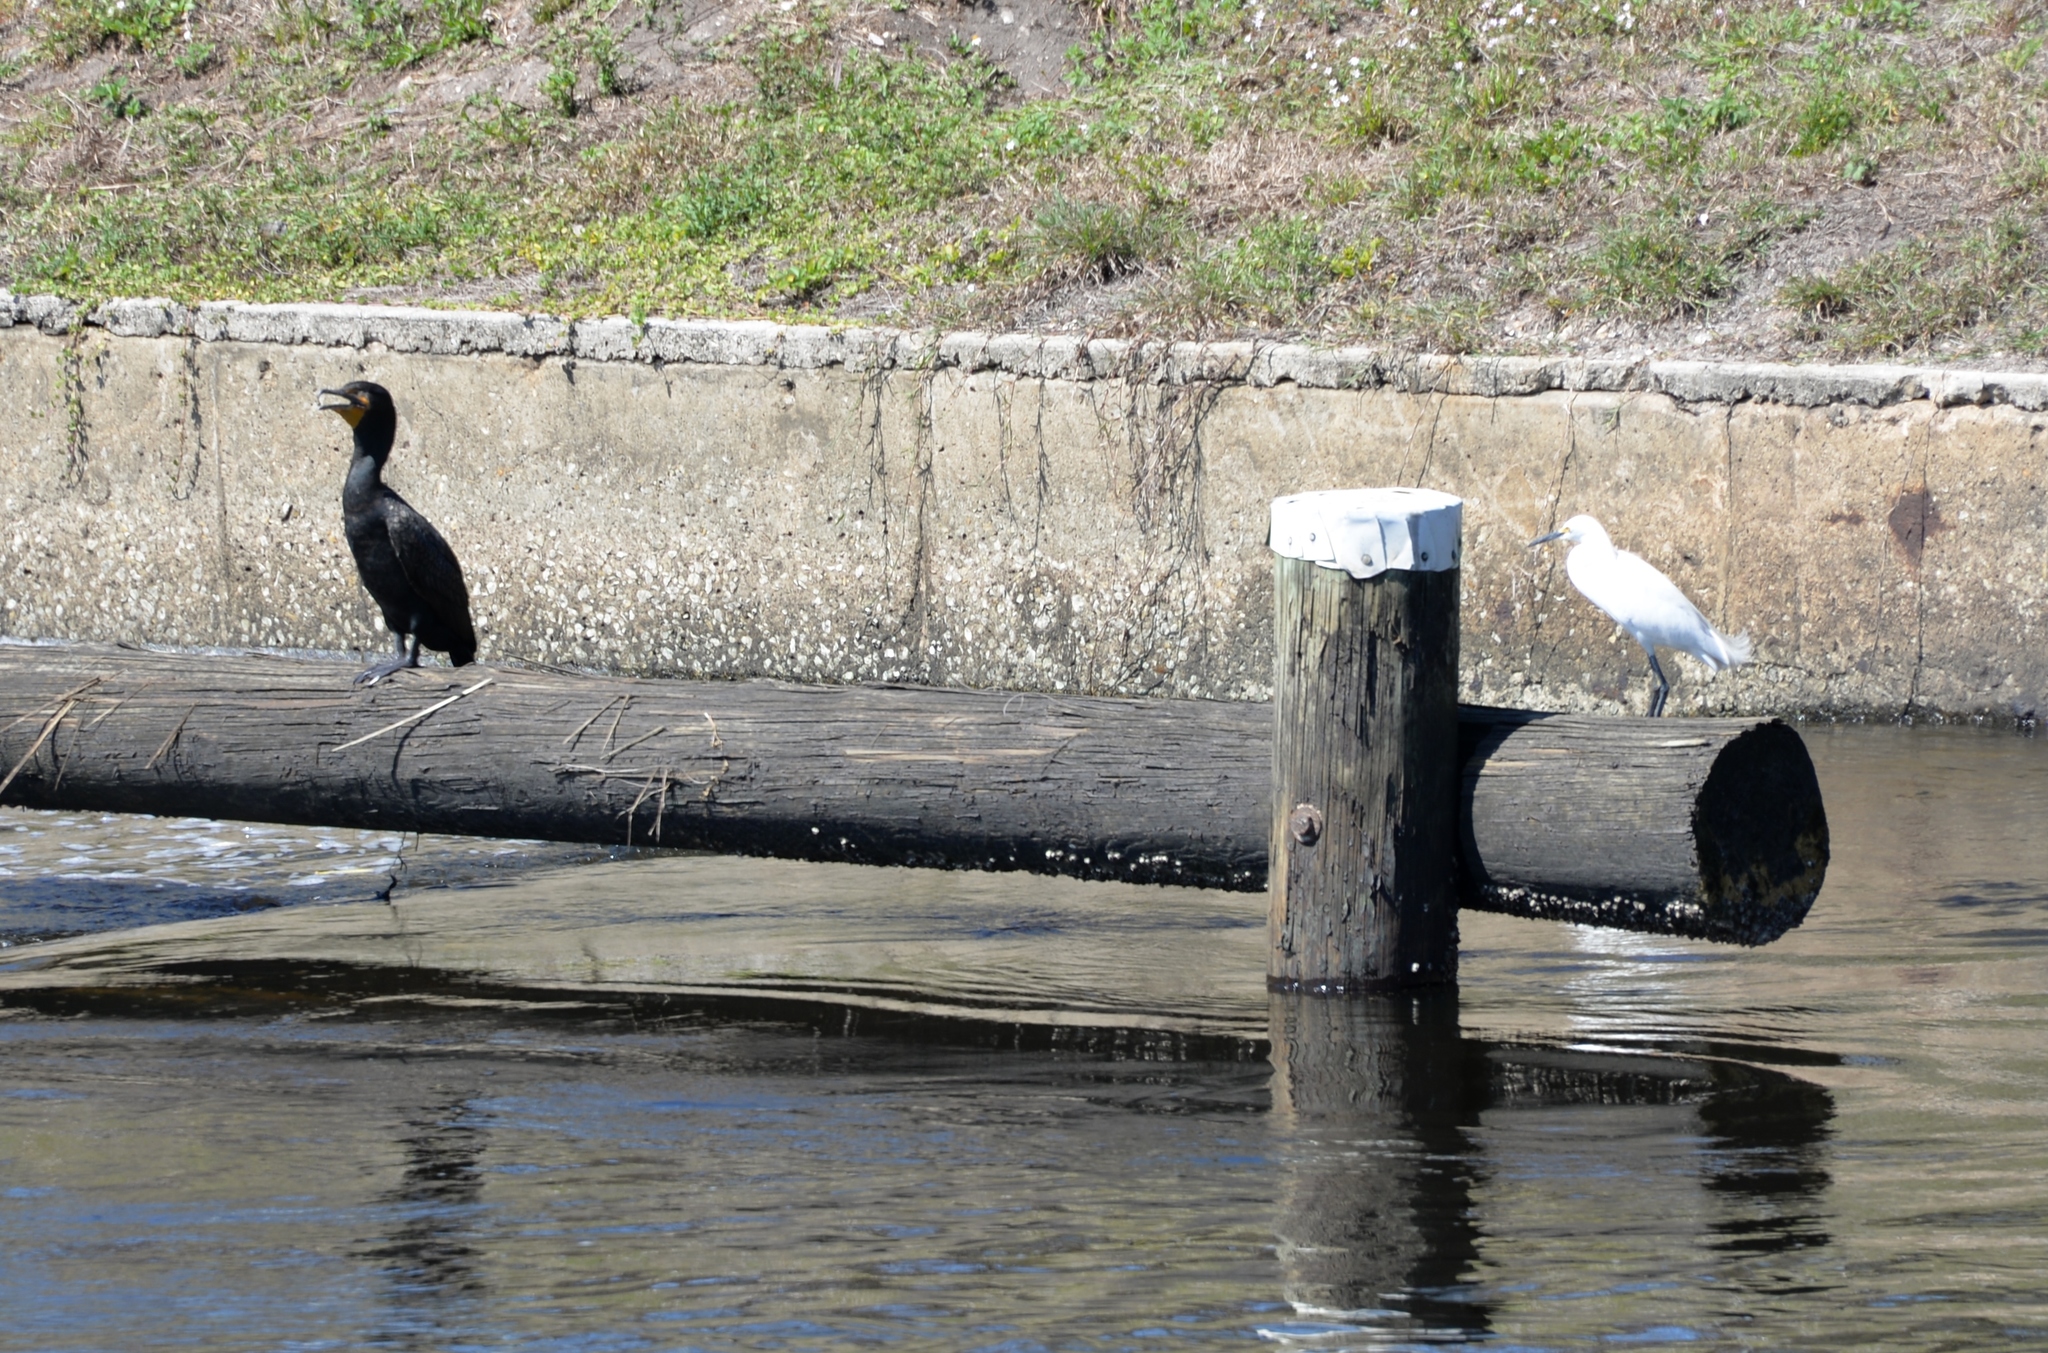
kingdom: Animalia
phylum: Chordata
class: Aves
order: Pelecaniformes
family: Ardeidae
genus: Egretta
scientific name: Egretta thula
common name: Snowy egret
